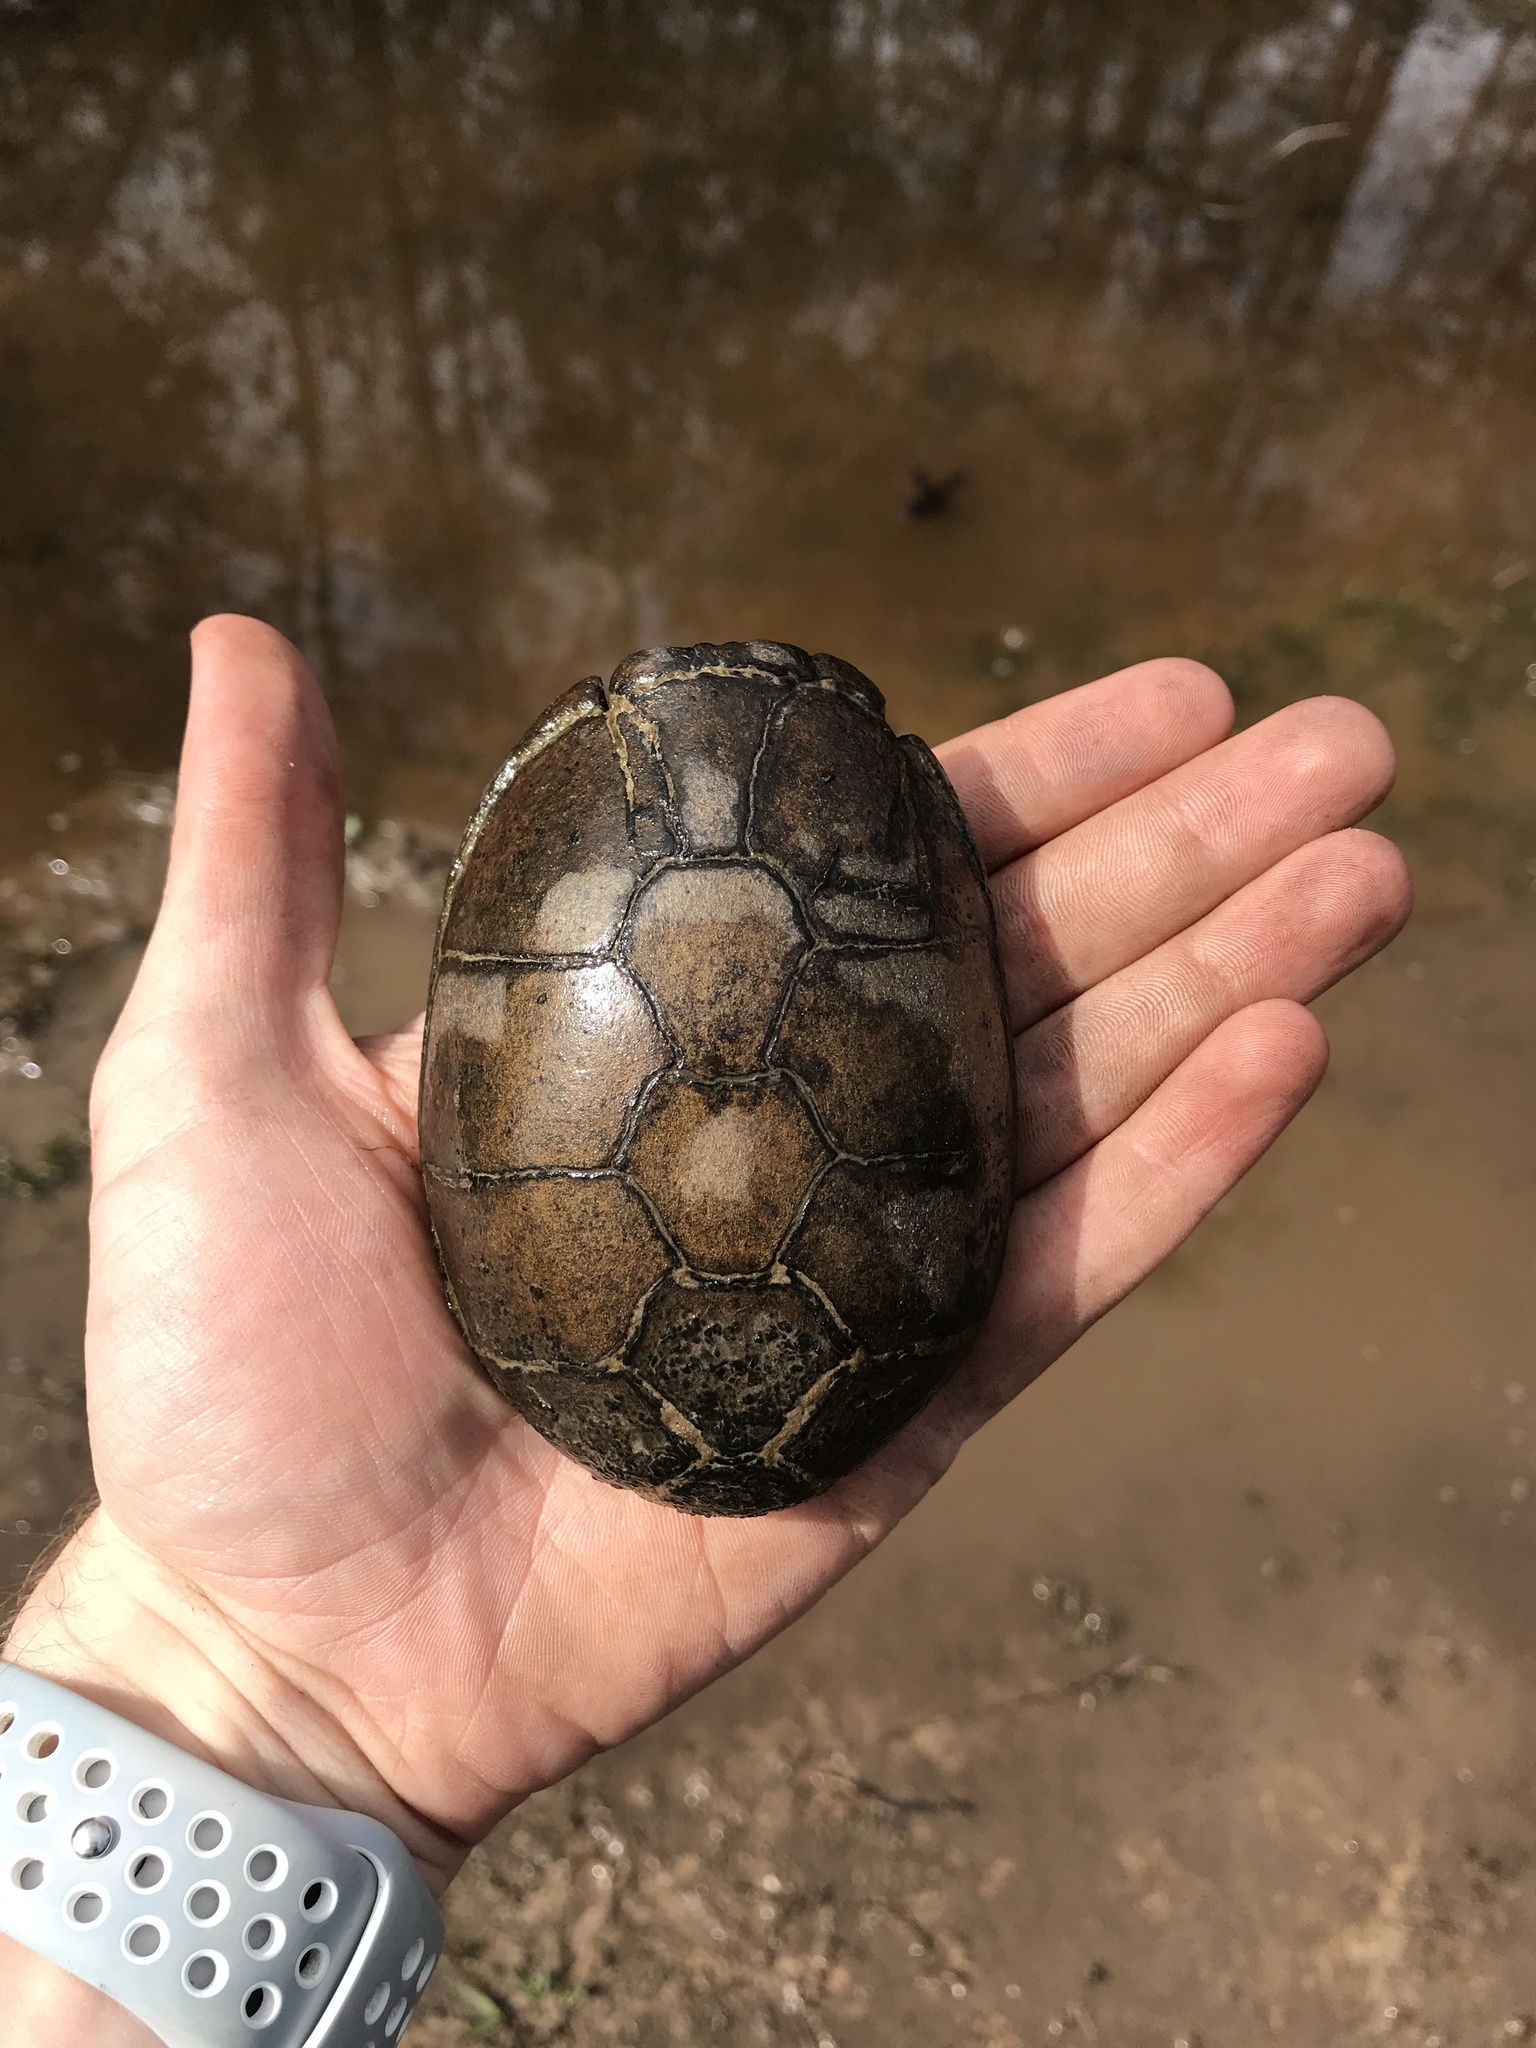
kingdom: Animalia
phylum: Chordata
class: Testudines
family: Kinosternidae
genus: Kinosternon
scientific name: Kinosternon subrubrum
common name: Eastern mud turtle
